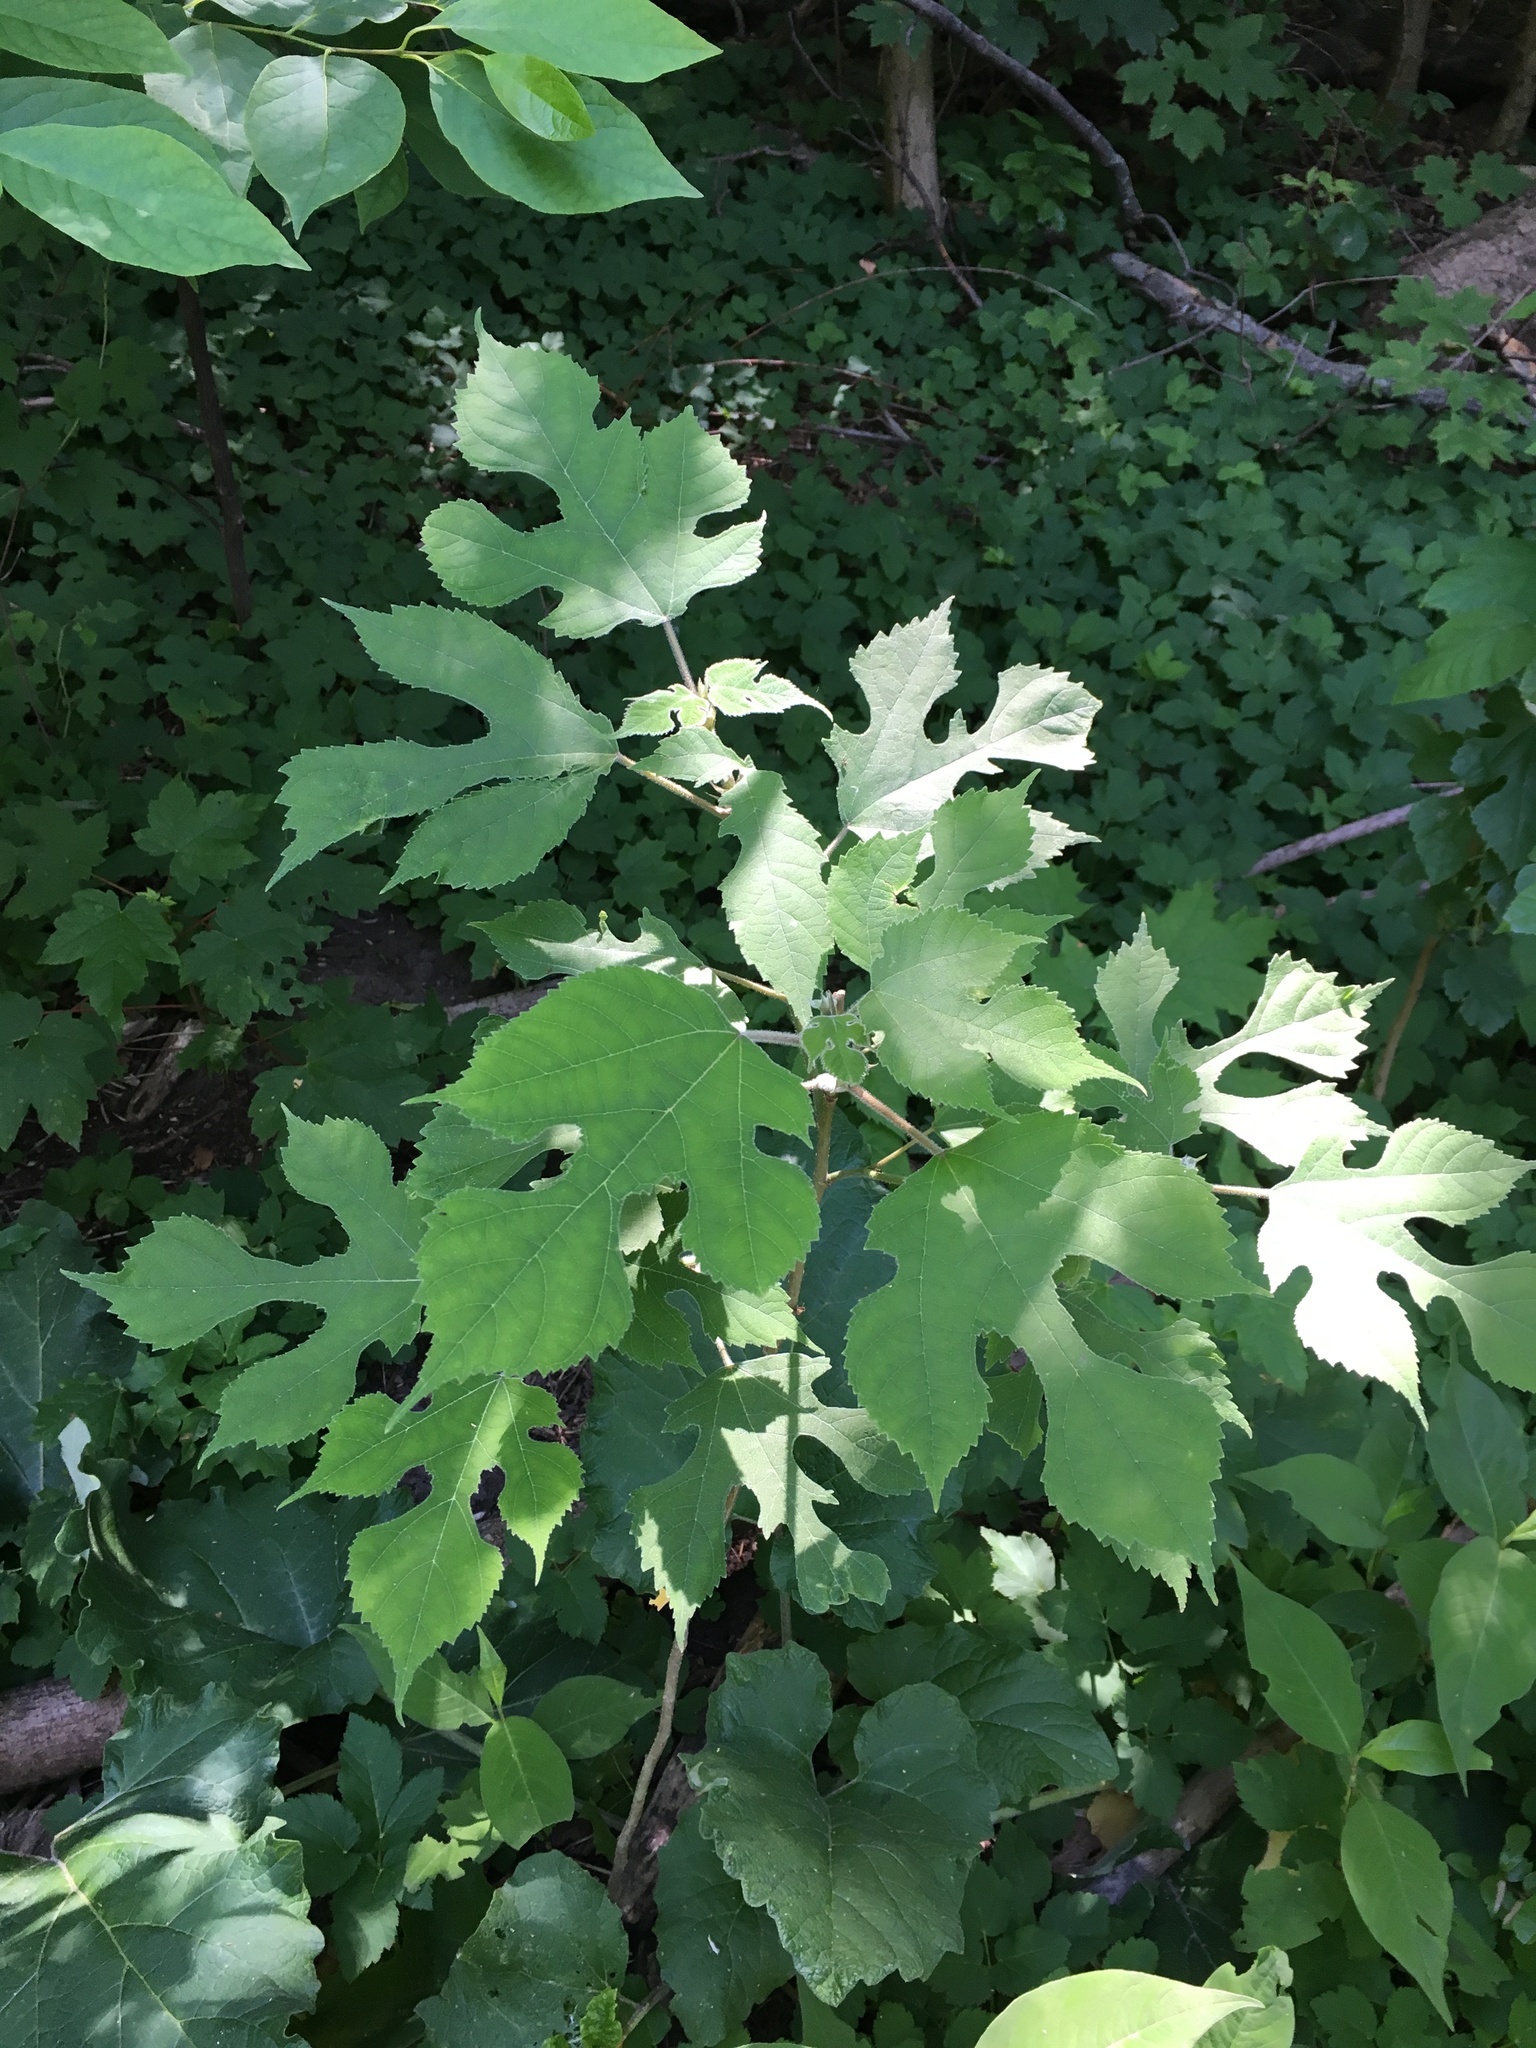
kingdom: Plantae
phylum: Tracheophyta
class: Magnoliopsida
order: Rosales
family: Moraceae
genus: Broussonetia
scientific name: Broussonetia papyrifera
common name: Paper mulberry
